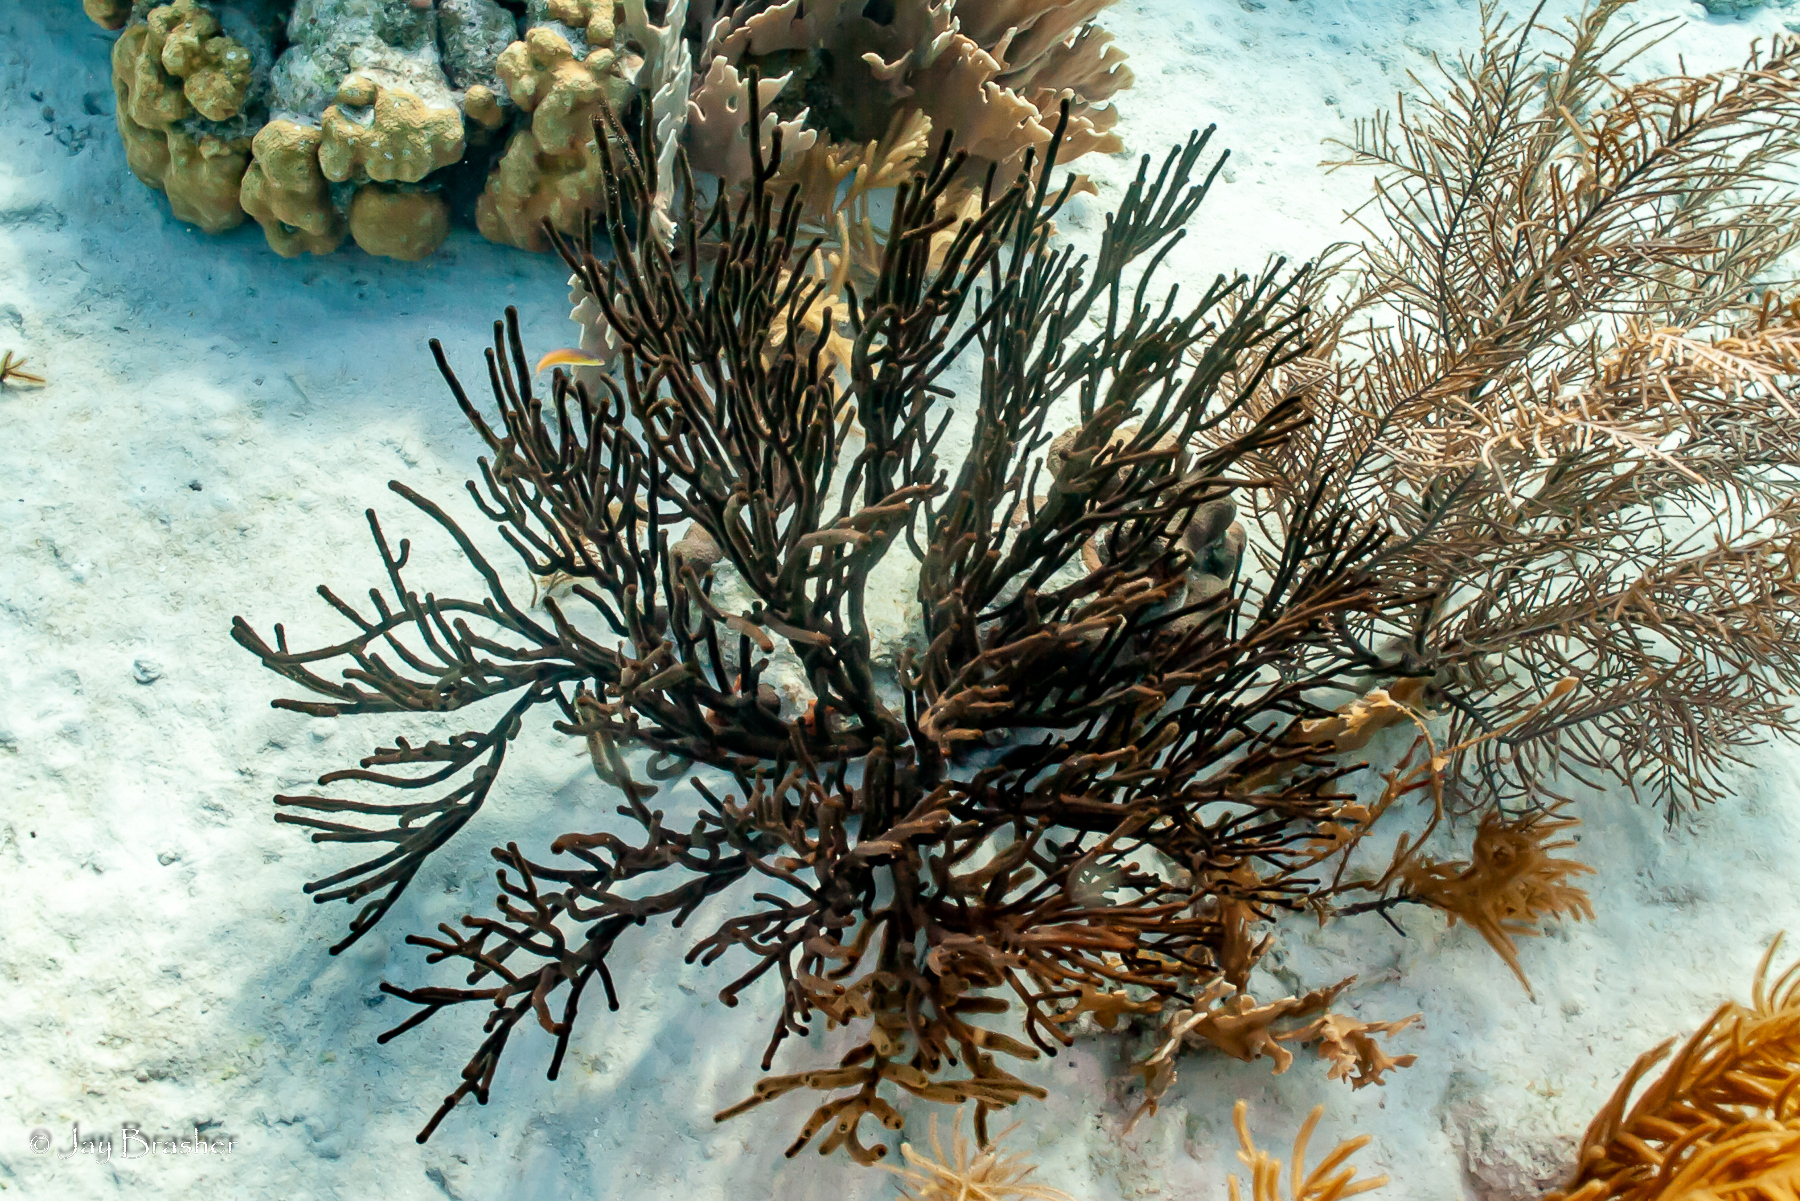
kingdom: Animalia
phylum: Cnidaria
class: Anthozoa
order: Malacalcyonacea
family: Plexauridae
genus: Plexaura
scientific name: Plexaura homomalla
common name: Black sea rod
